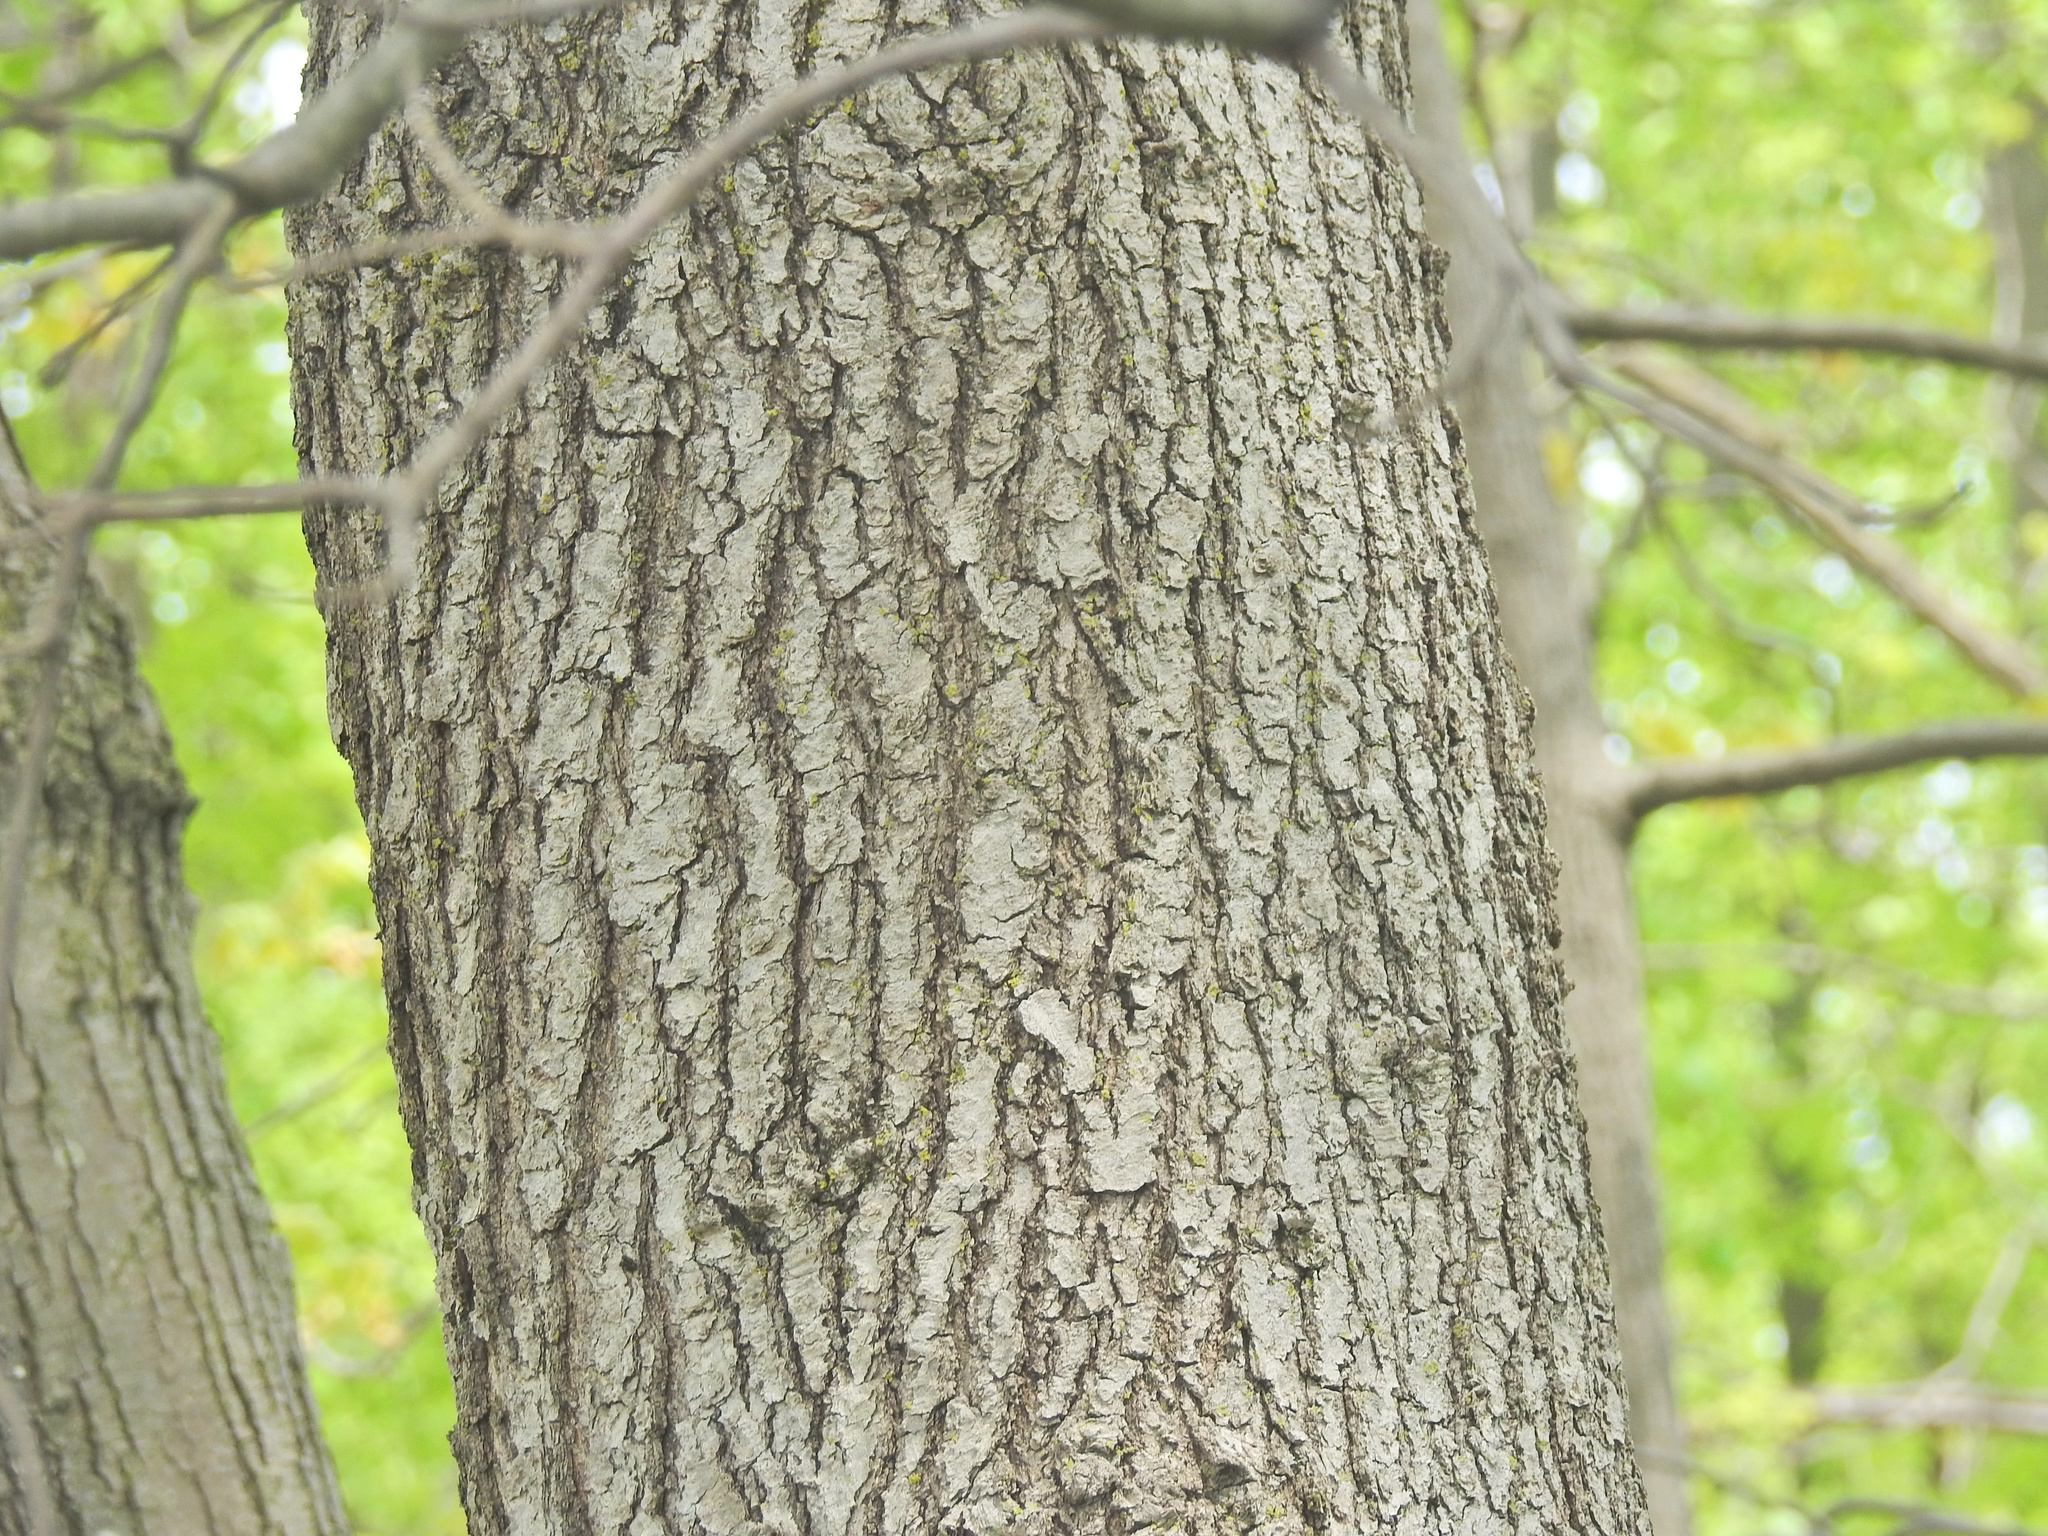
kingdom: Plantae
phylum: Tracheophyta
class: Magnoliopsida
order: Fagales
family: Fagaceae
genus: Quercus
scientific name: Quercus velutina
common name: Black oak
